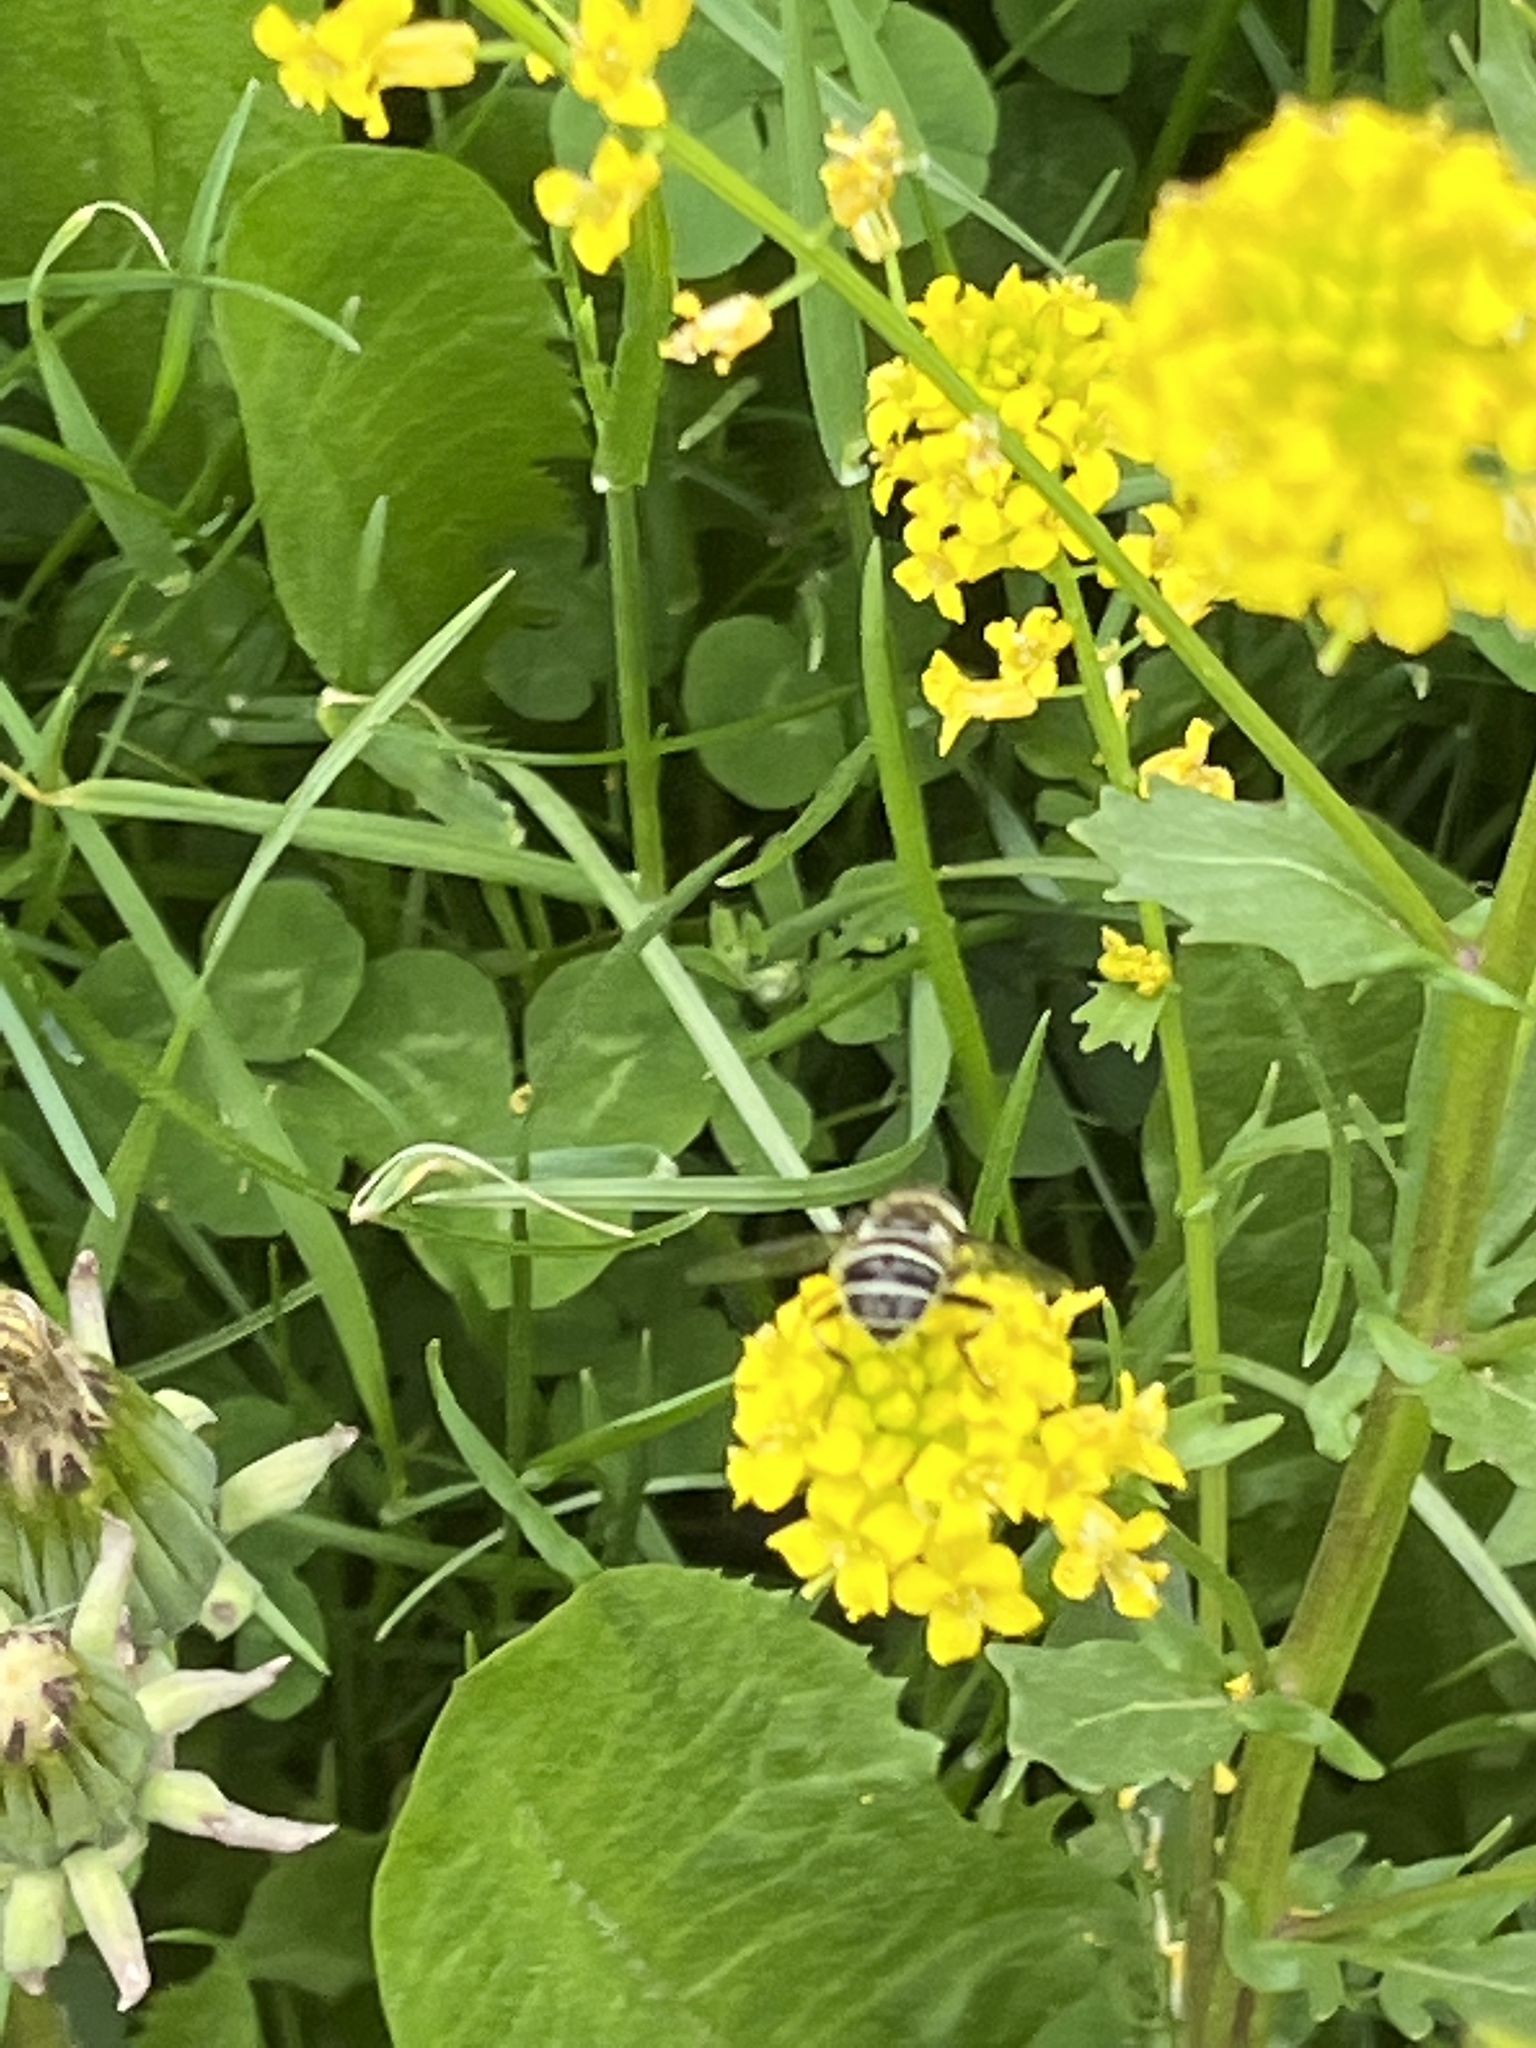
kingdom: Animalia
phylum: Arthropoda
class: Insecta
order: Diptera
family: Syrphidae
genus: Eristalis
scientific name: Eristalis dimidiata
